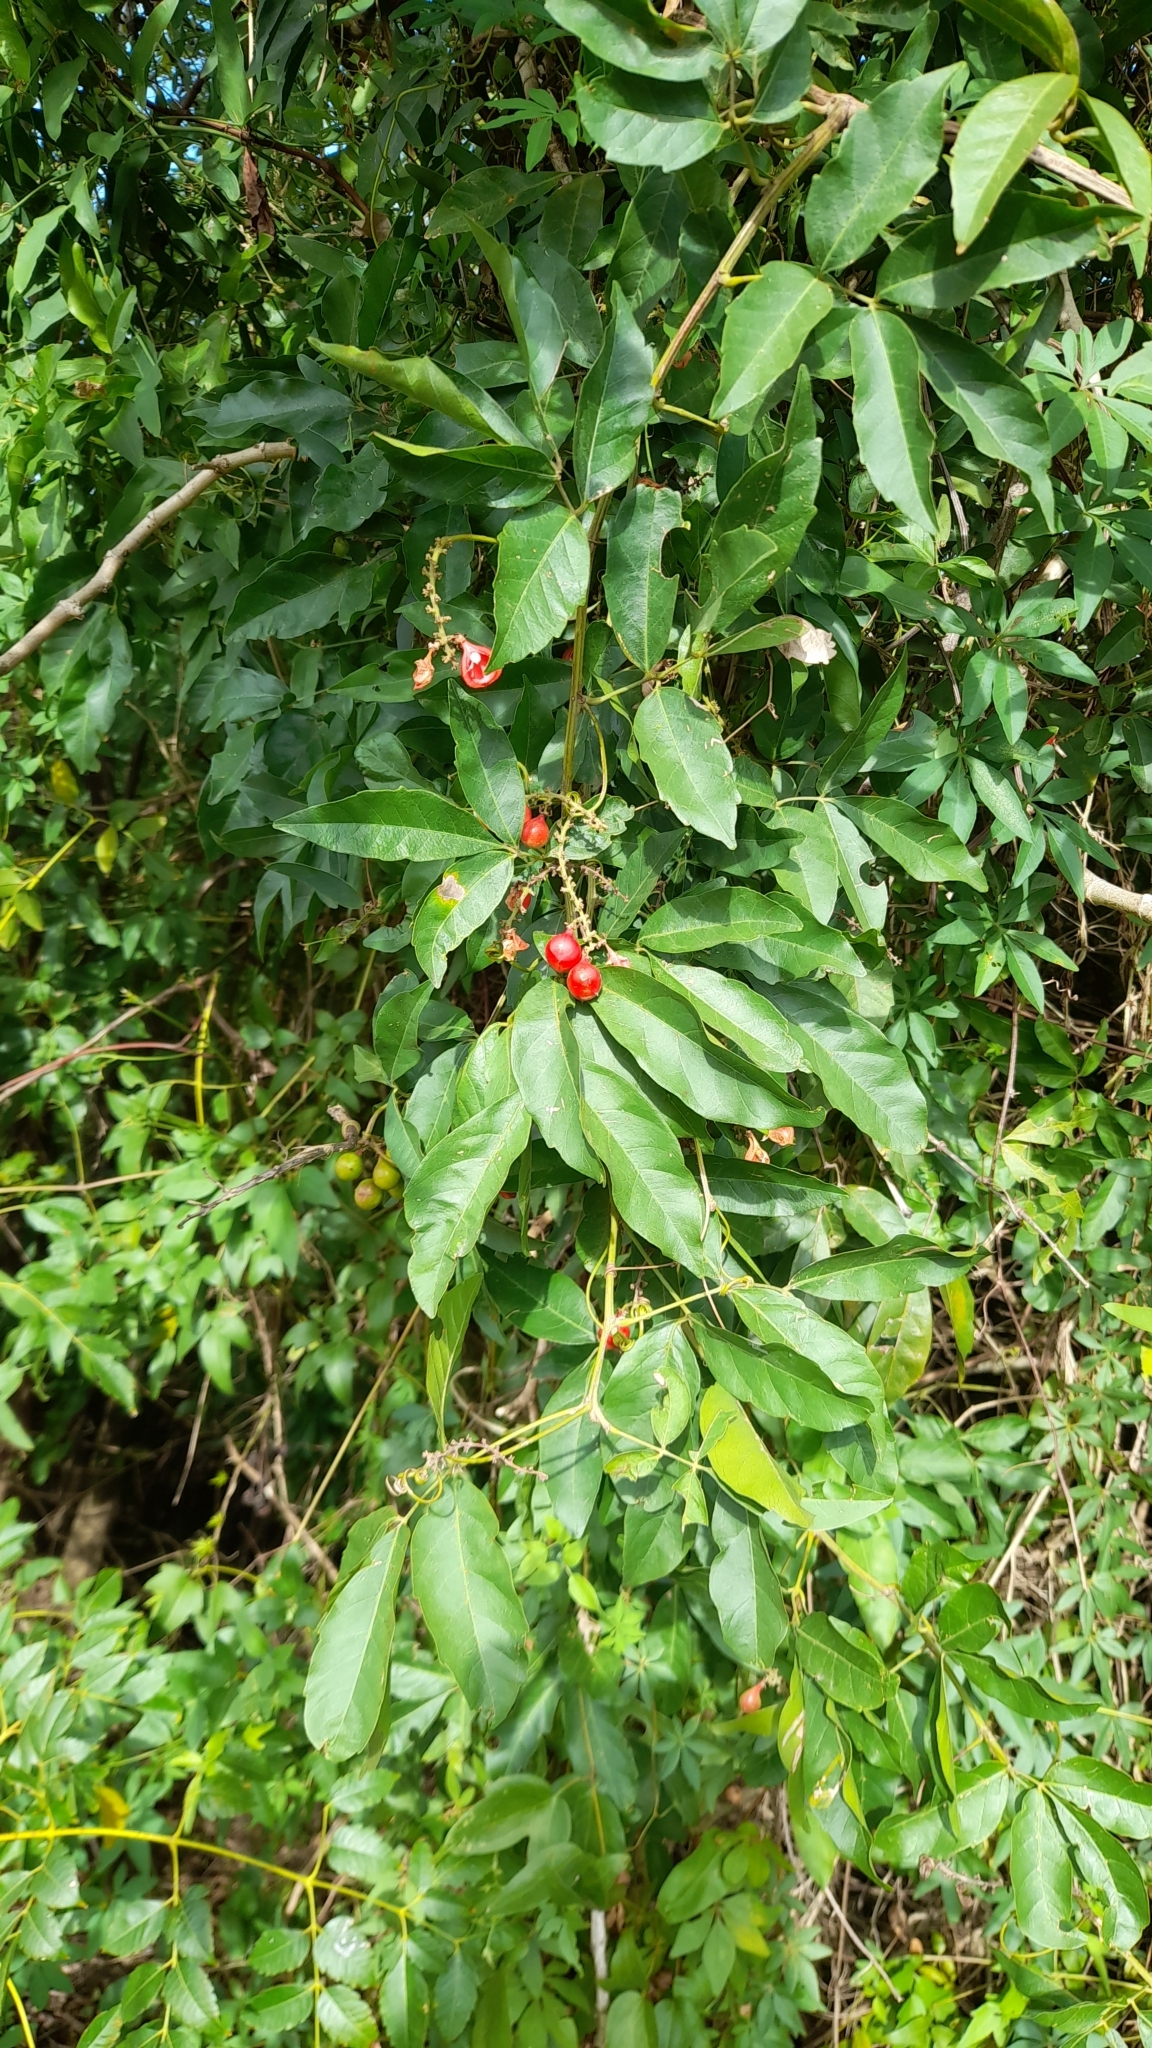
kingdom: Plantae
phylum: Tracheophyta
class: Magnoliopsida
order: Sapindales
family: Sapindaceae
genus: Paullinia
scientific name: Paullinia elegans
